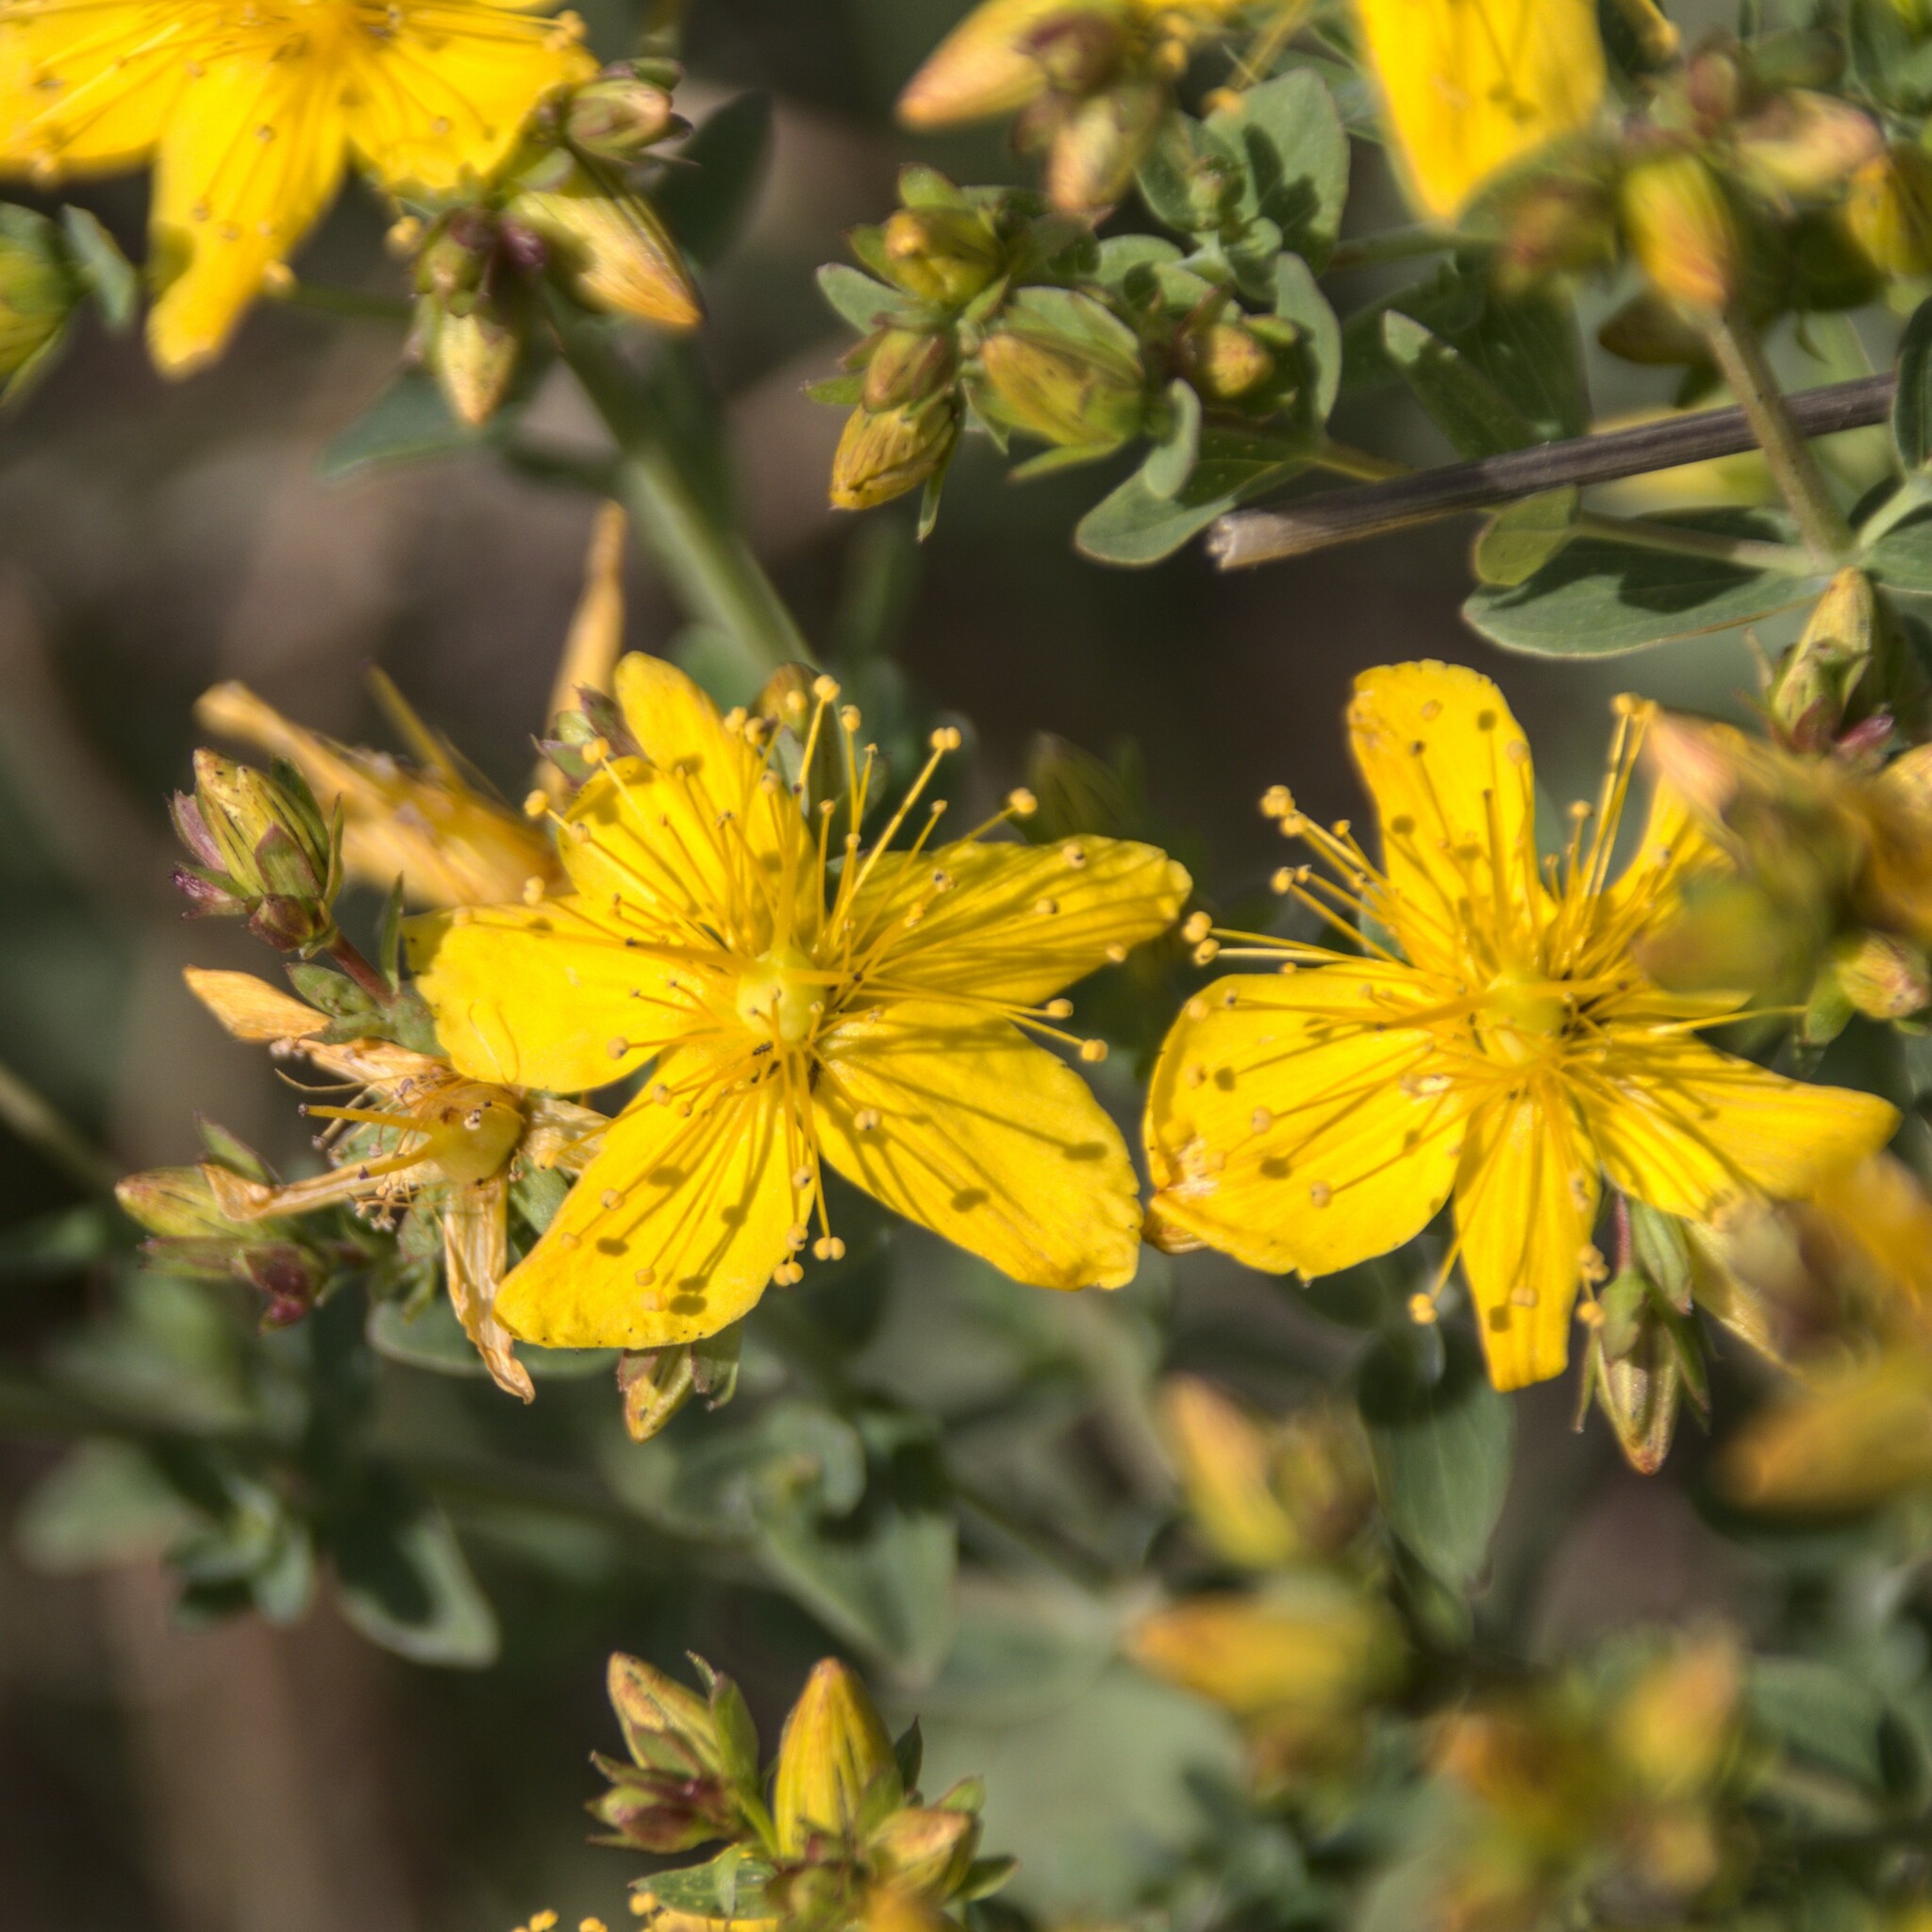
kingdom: Plantae
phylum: Tracheophyta
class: Magnoliopsida
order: Malpighiales
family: Hypericaceae
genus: Hypericum
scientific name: Hypericum perforatum
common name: Common st. johnswort
